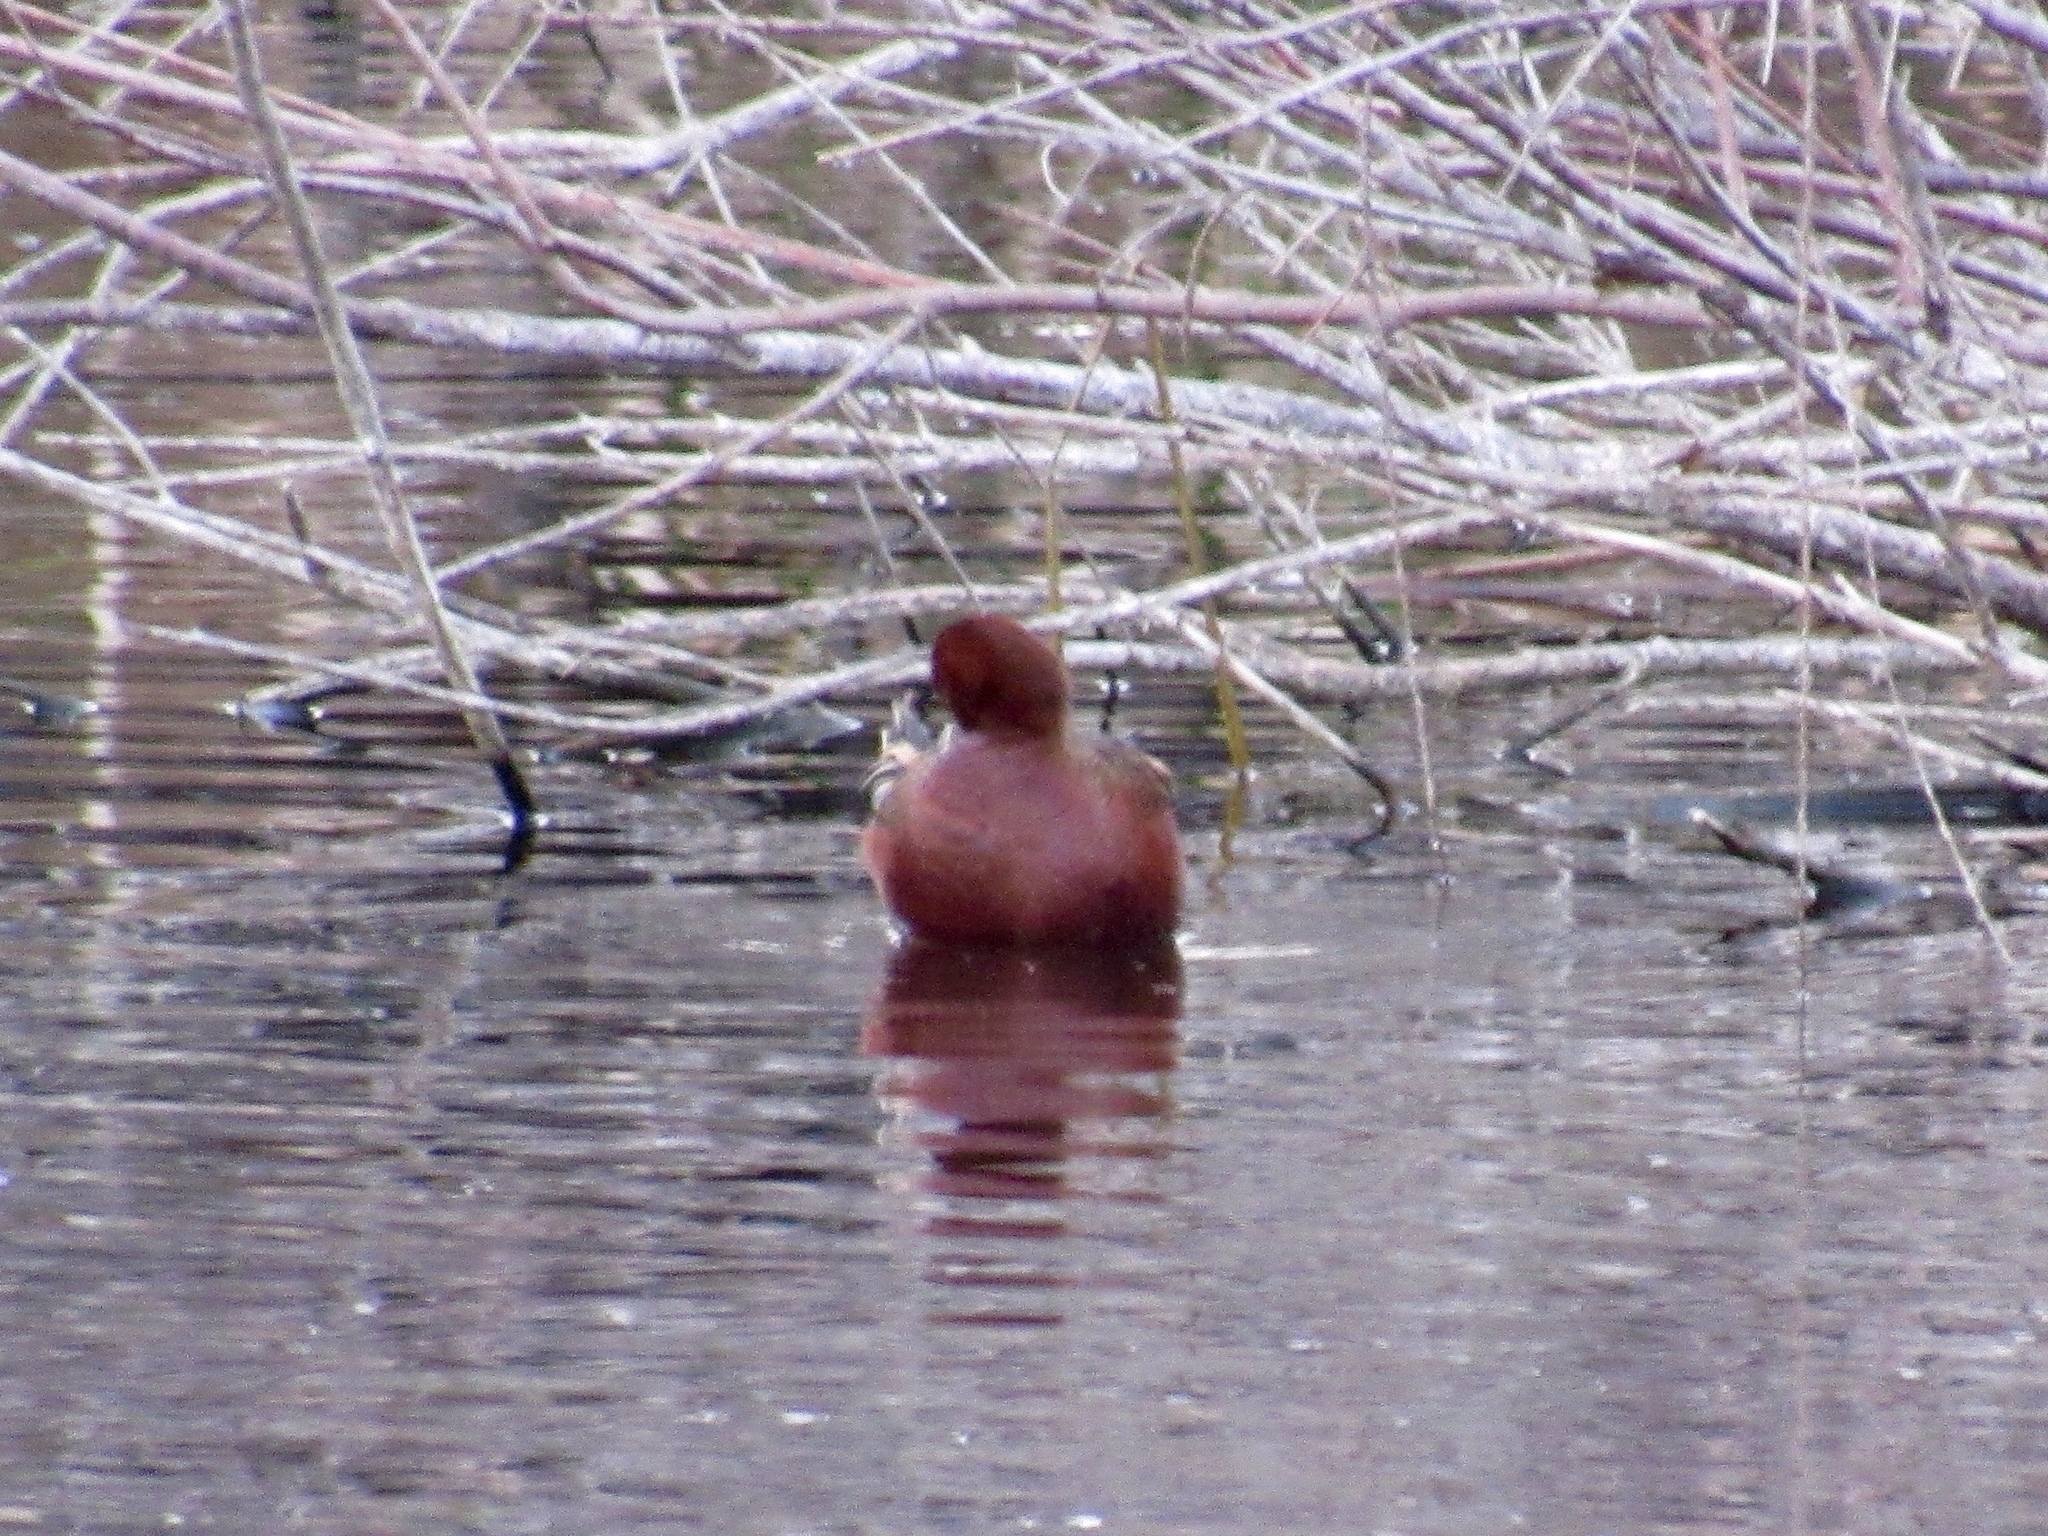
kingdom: Animalia
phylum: Chordata
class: Aves
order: Anseriformes
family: Anatidae
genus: Spatula
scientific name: Spatula cyanoptera
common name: Cinnamon teal
